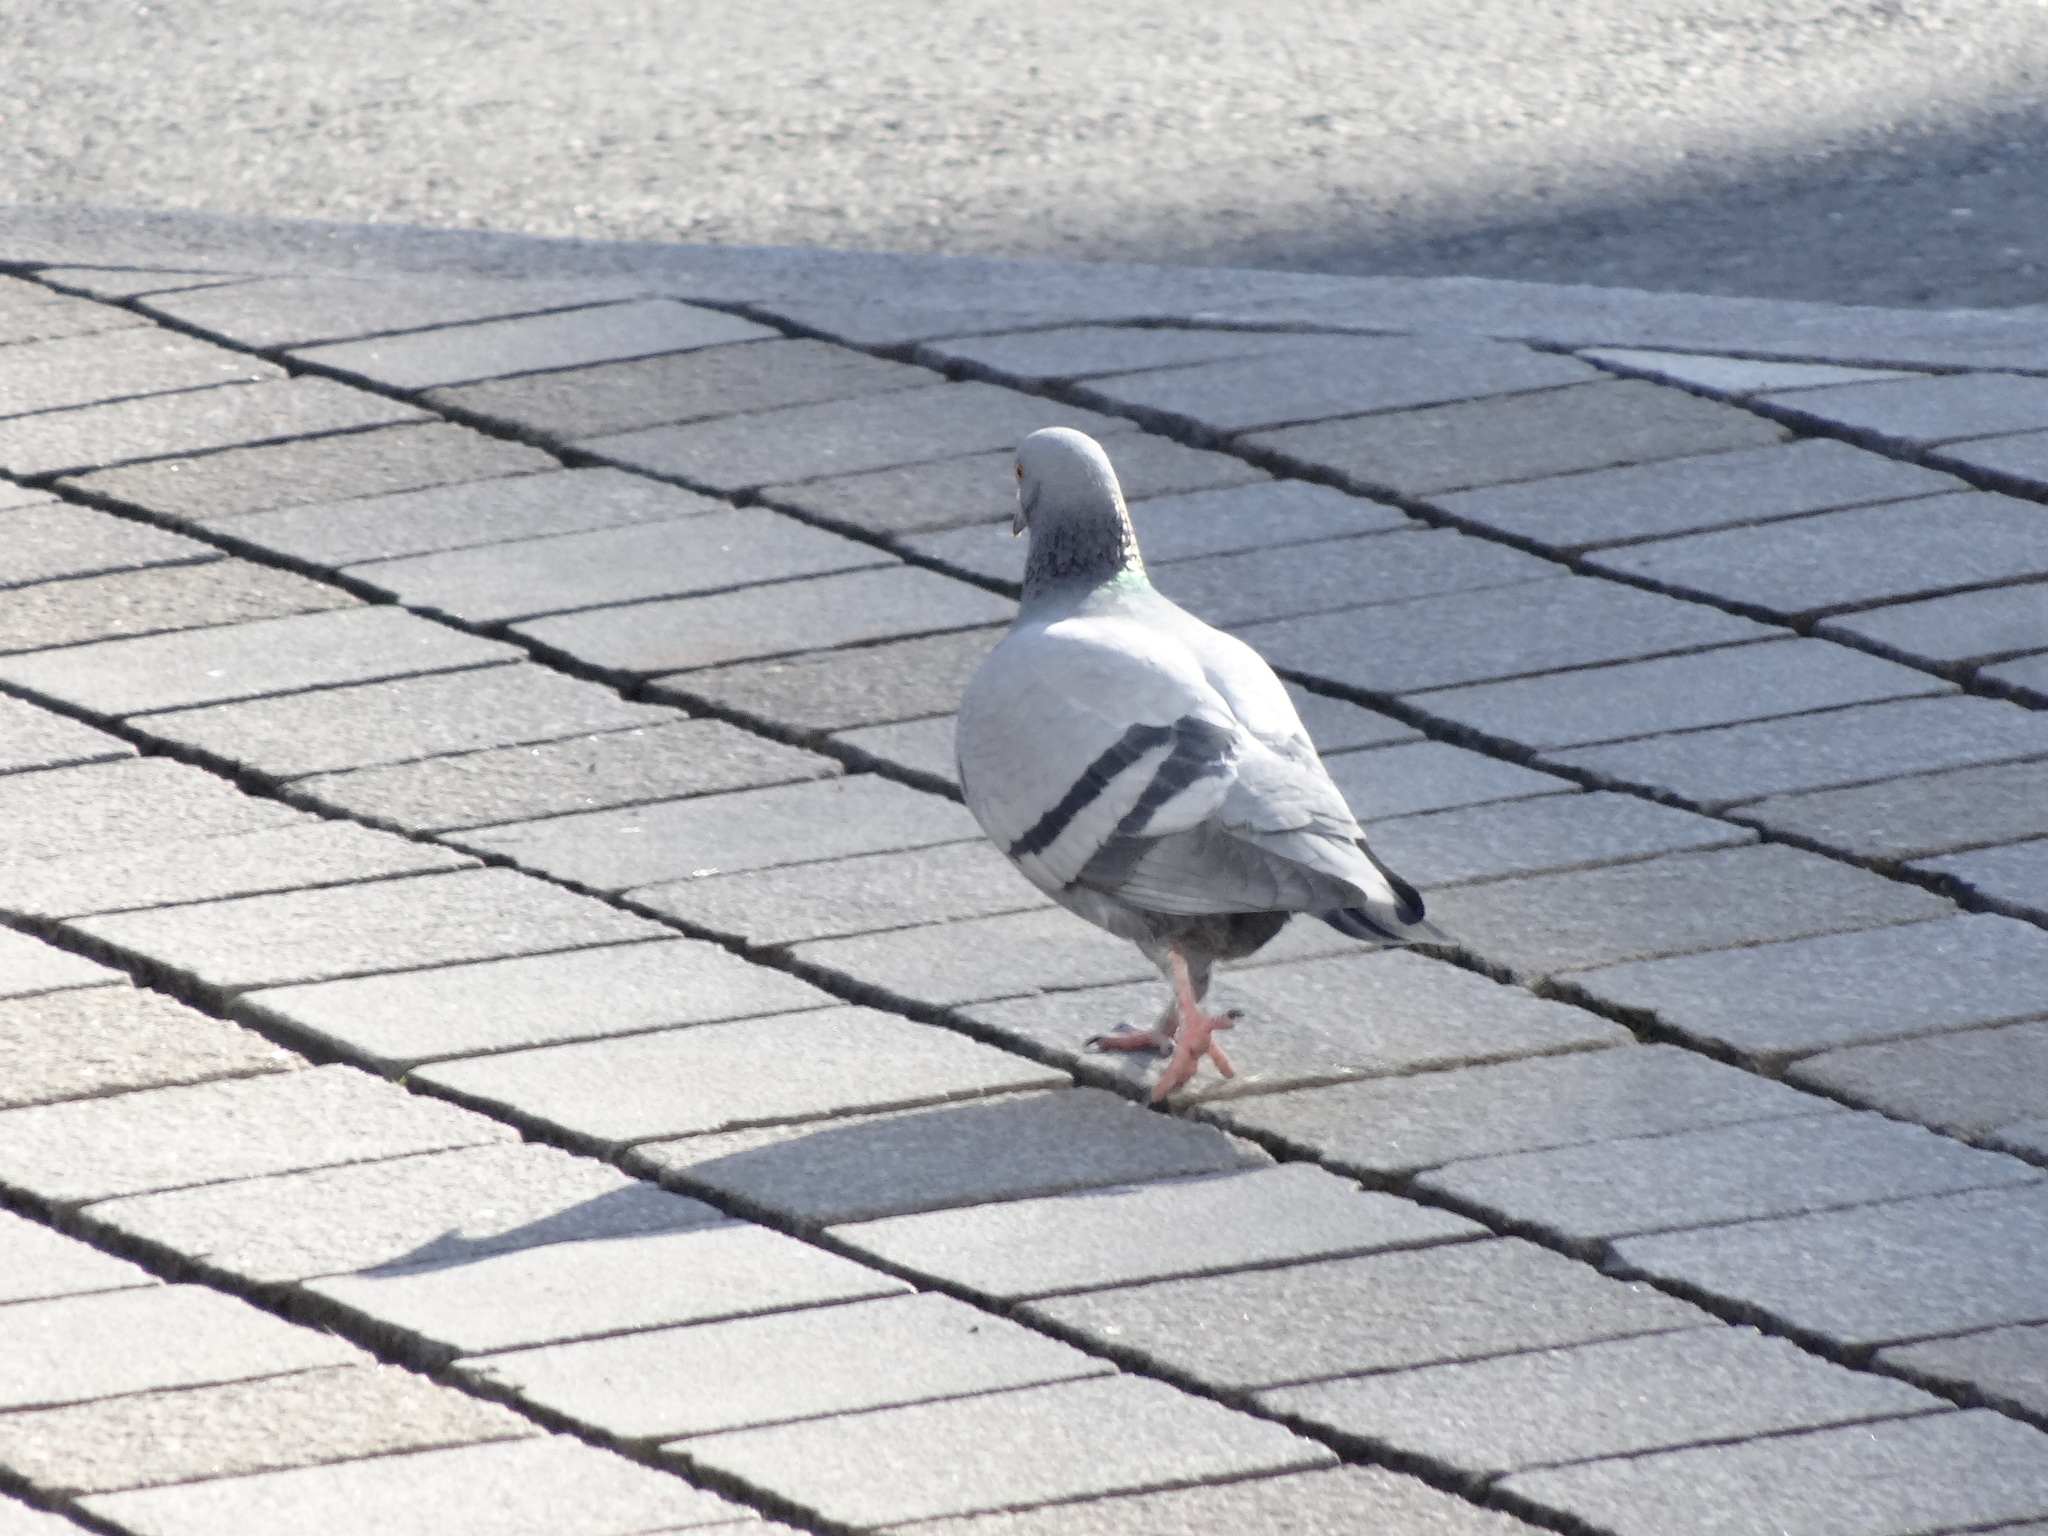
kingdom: Animalia
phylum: Chordata
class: Aves
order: Columbiformes
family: Columbidae
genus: Columba
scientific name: Columba livia
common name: Rock pigeon
